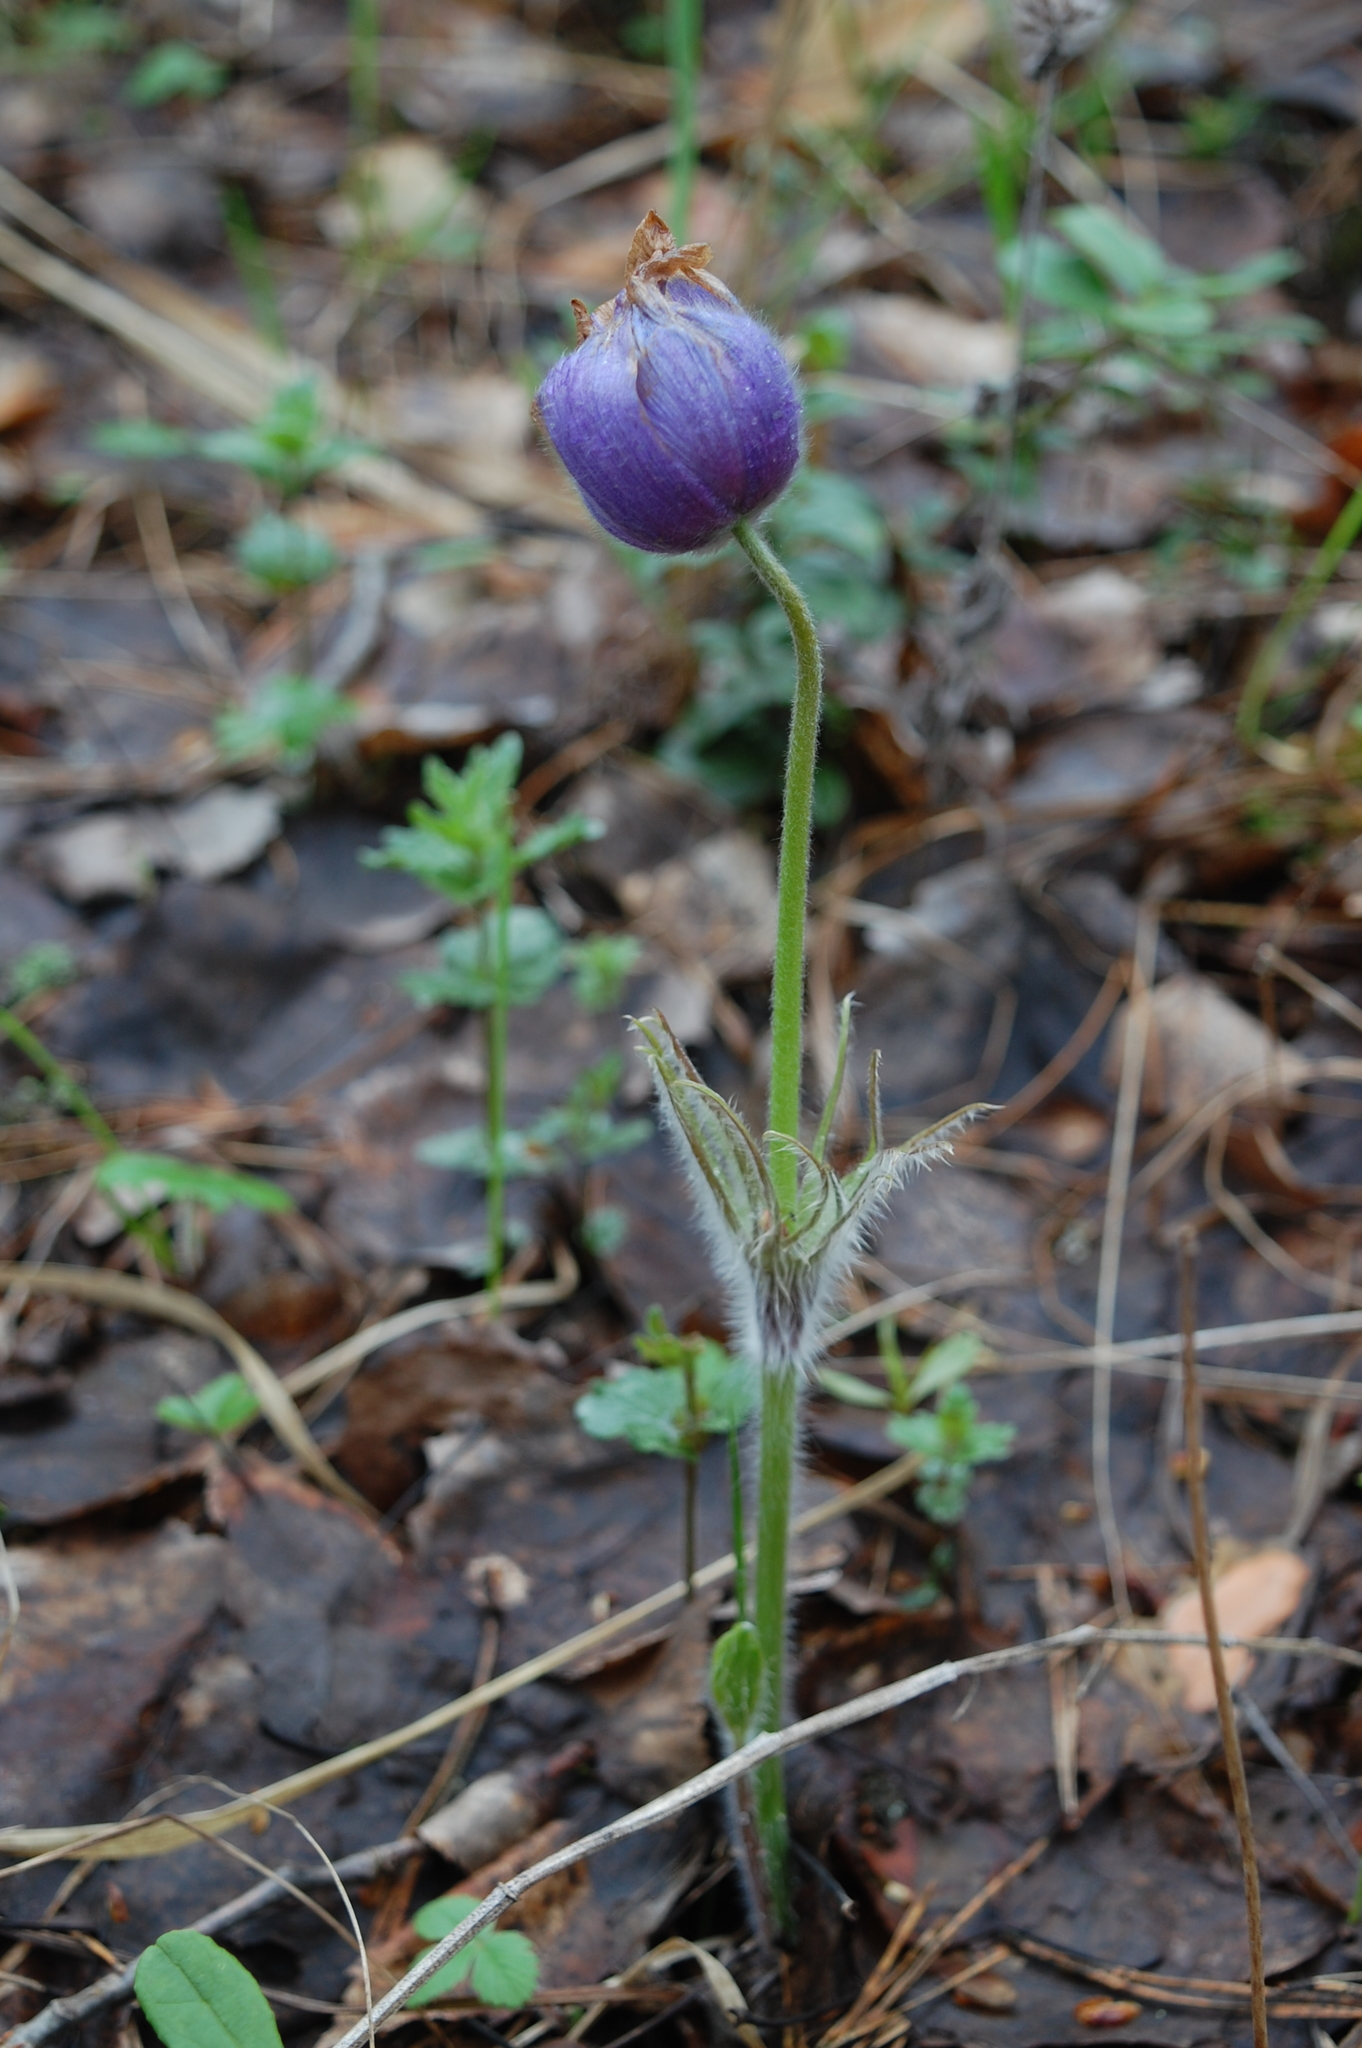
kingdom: Plantae
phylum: Tracheophyta
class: Magnoliopsida
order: Ranunculales
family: Ranunculaceae
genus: Pulsatilla
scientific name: Pulsatilla patens
